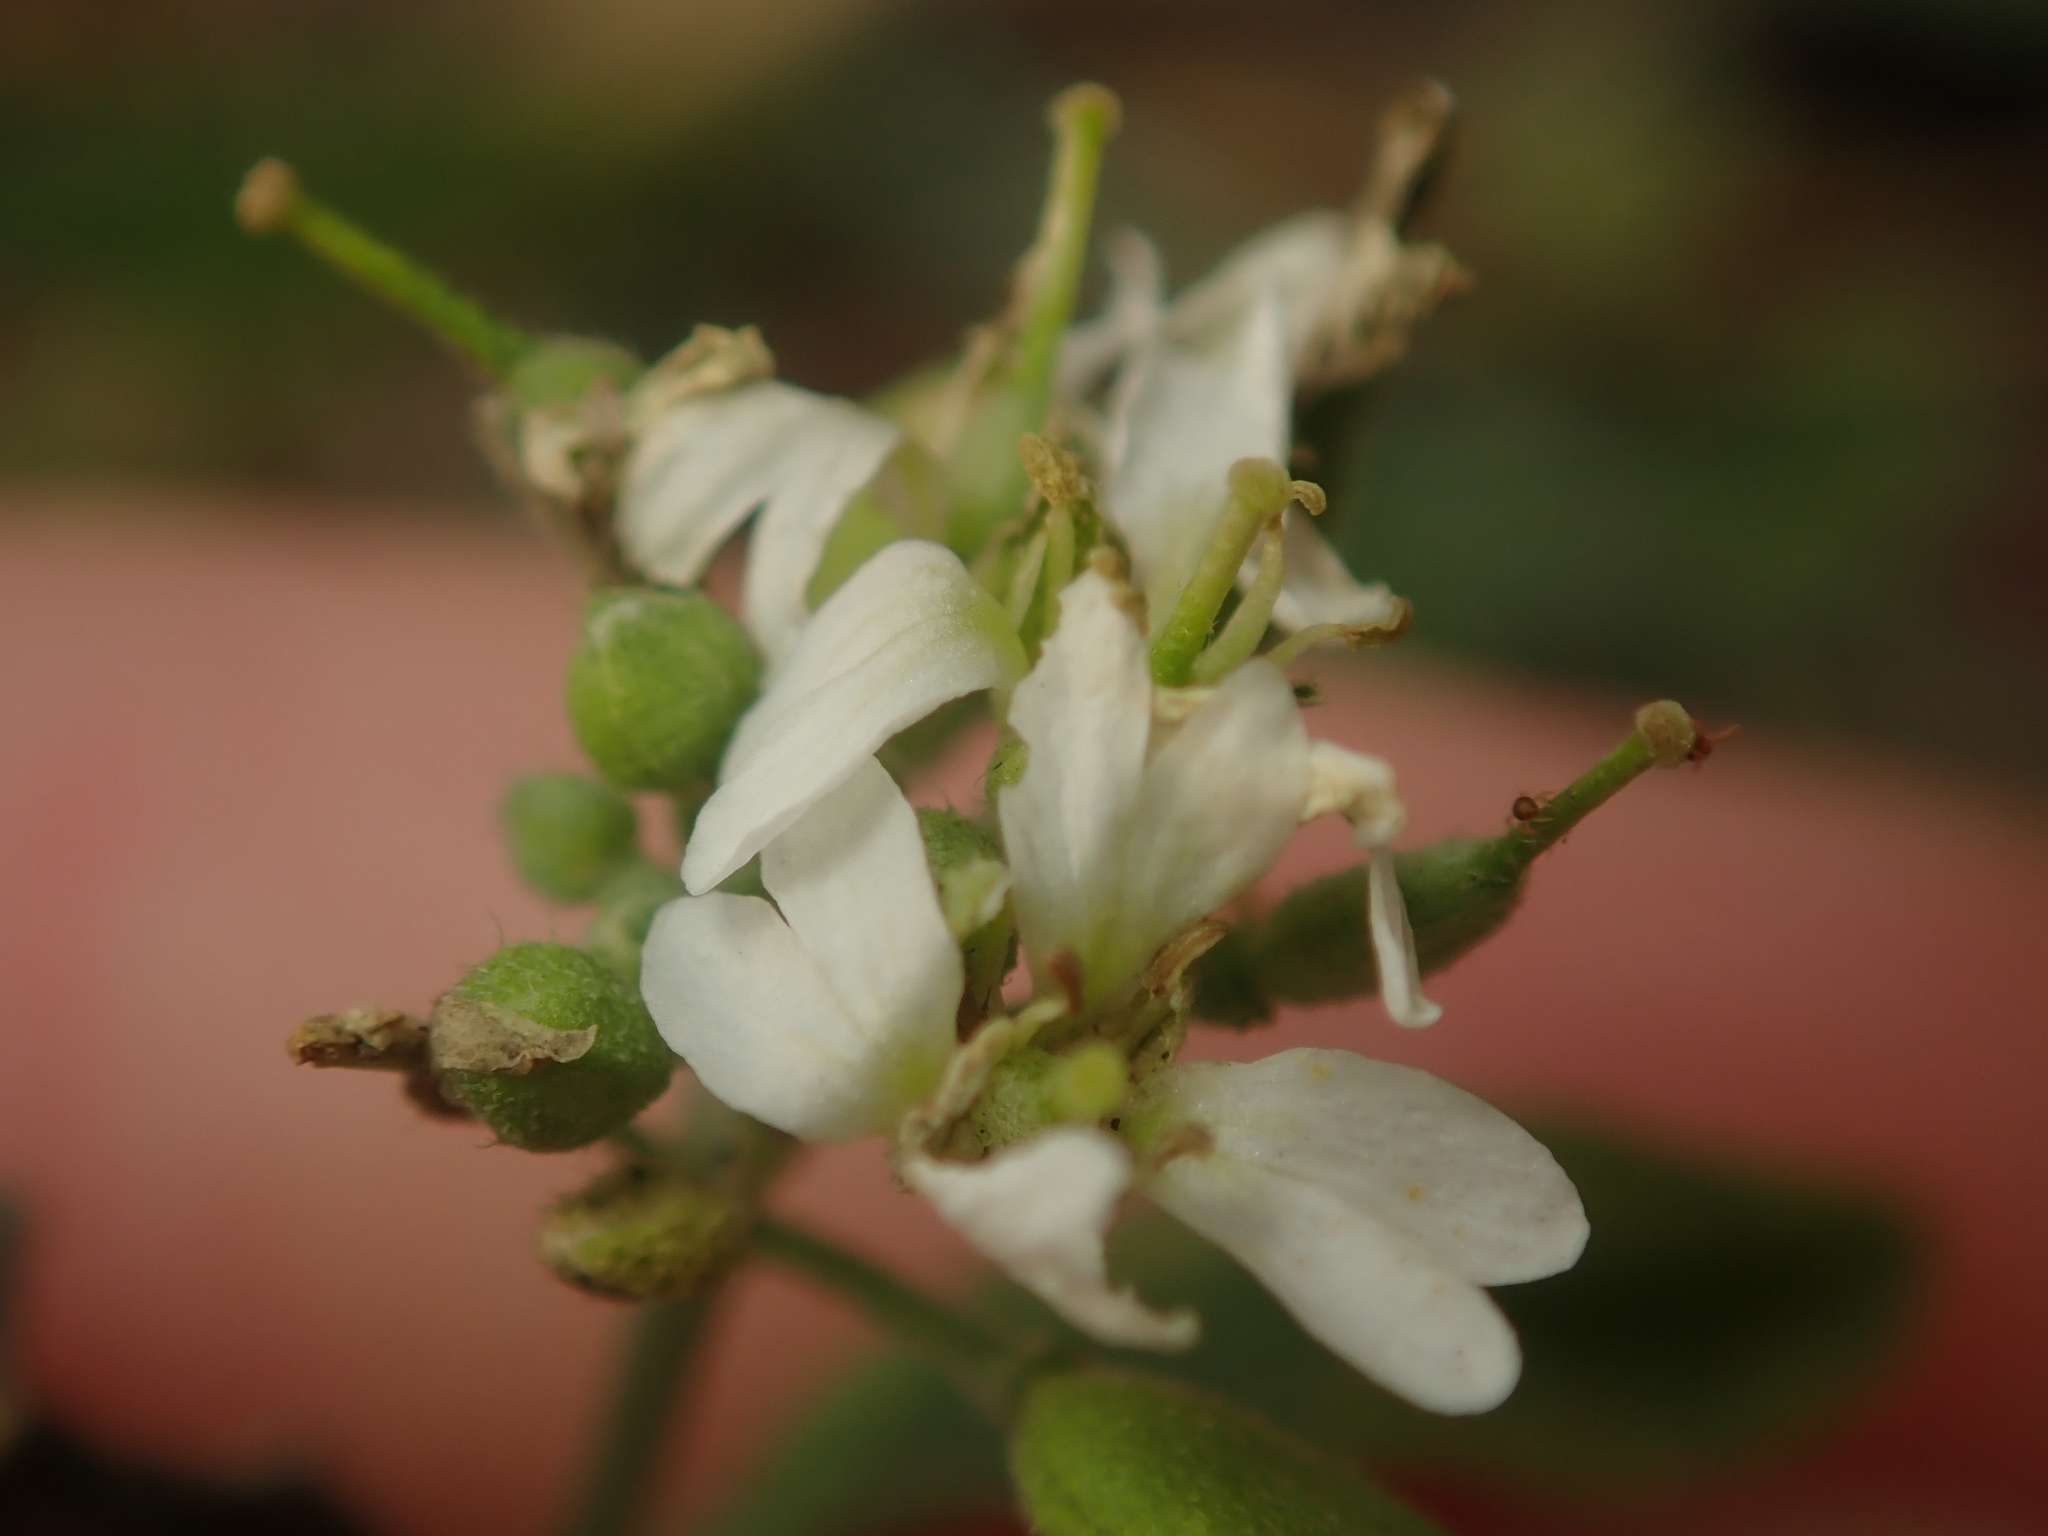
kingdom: Plantae
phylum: Tracheophyta
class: Magnoliopsida
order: Brassicales
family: Brassicaceae
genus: Berteroa
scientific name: Berteroa incana
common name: Hoary alison
